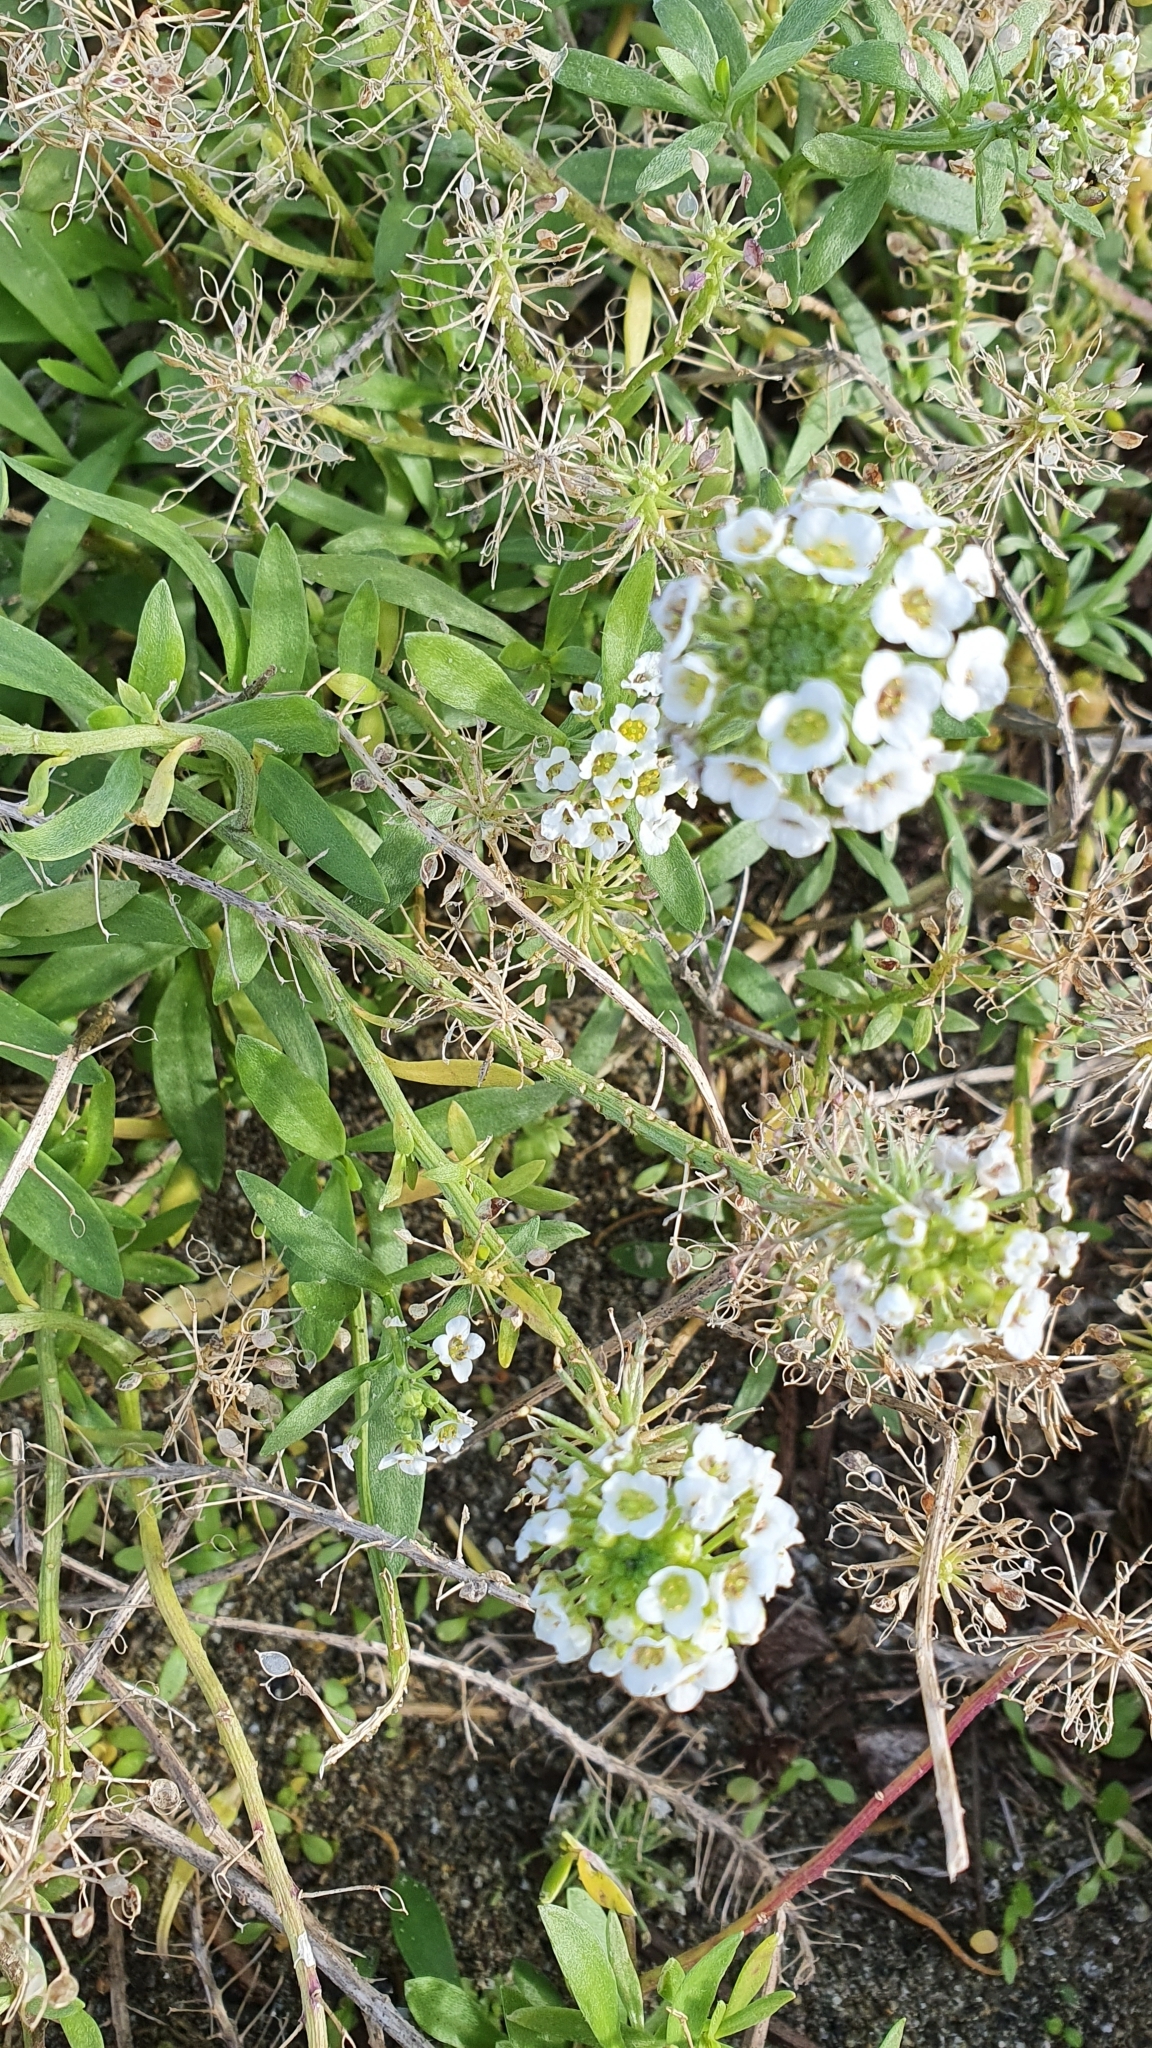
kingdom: Plantae
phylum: Tracheophyta
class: Magnoliopsida
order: Brassicales
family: Brassicaceae
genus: Lobularia
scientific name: Lobularia maritima
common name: Sweet alison
